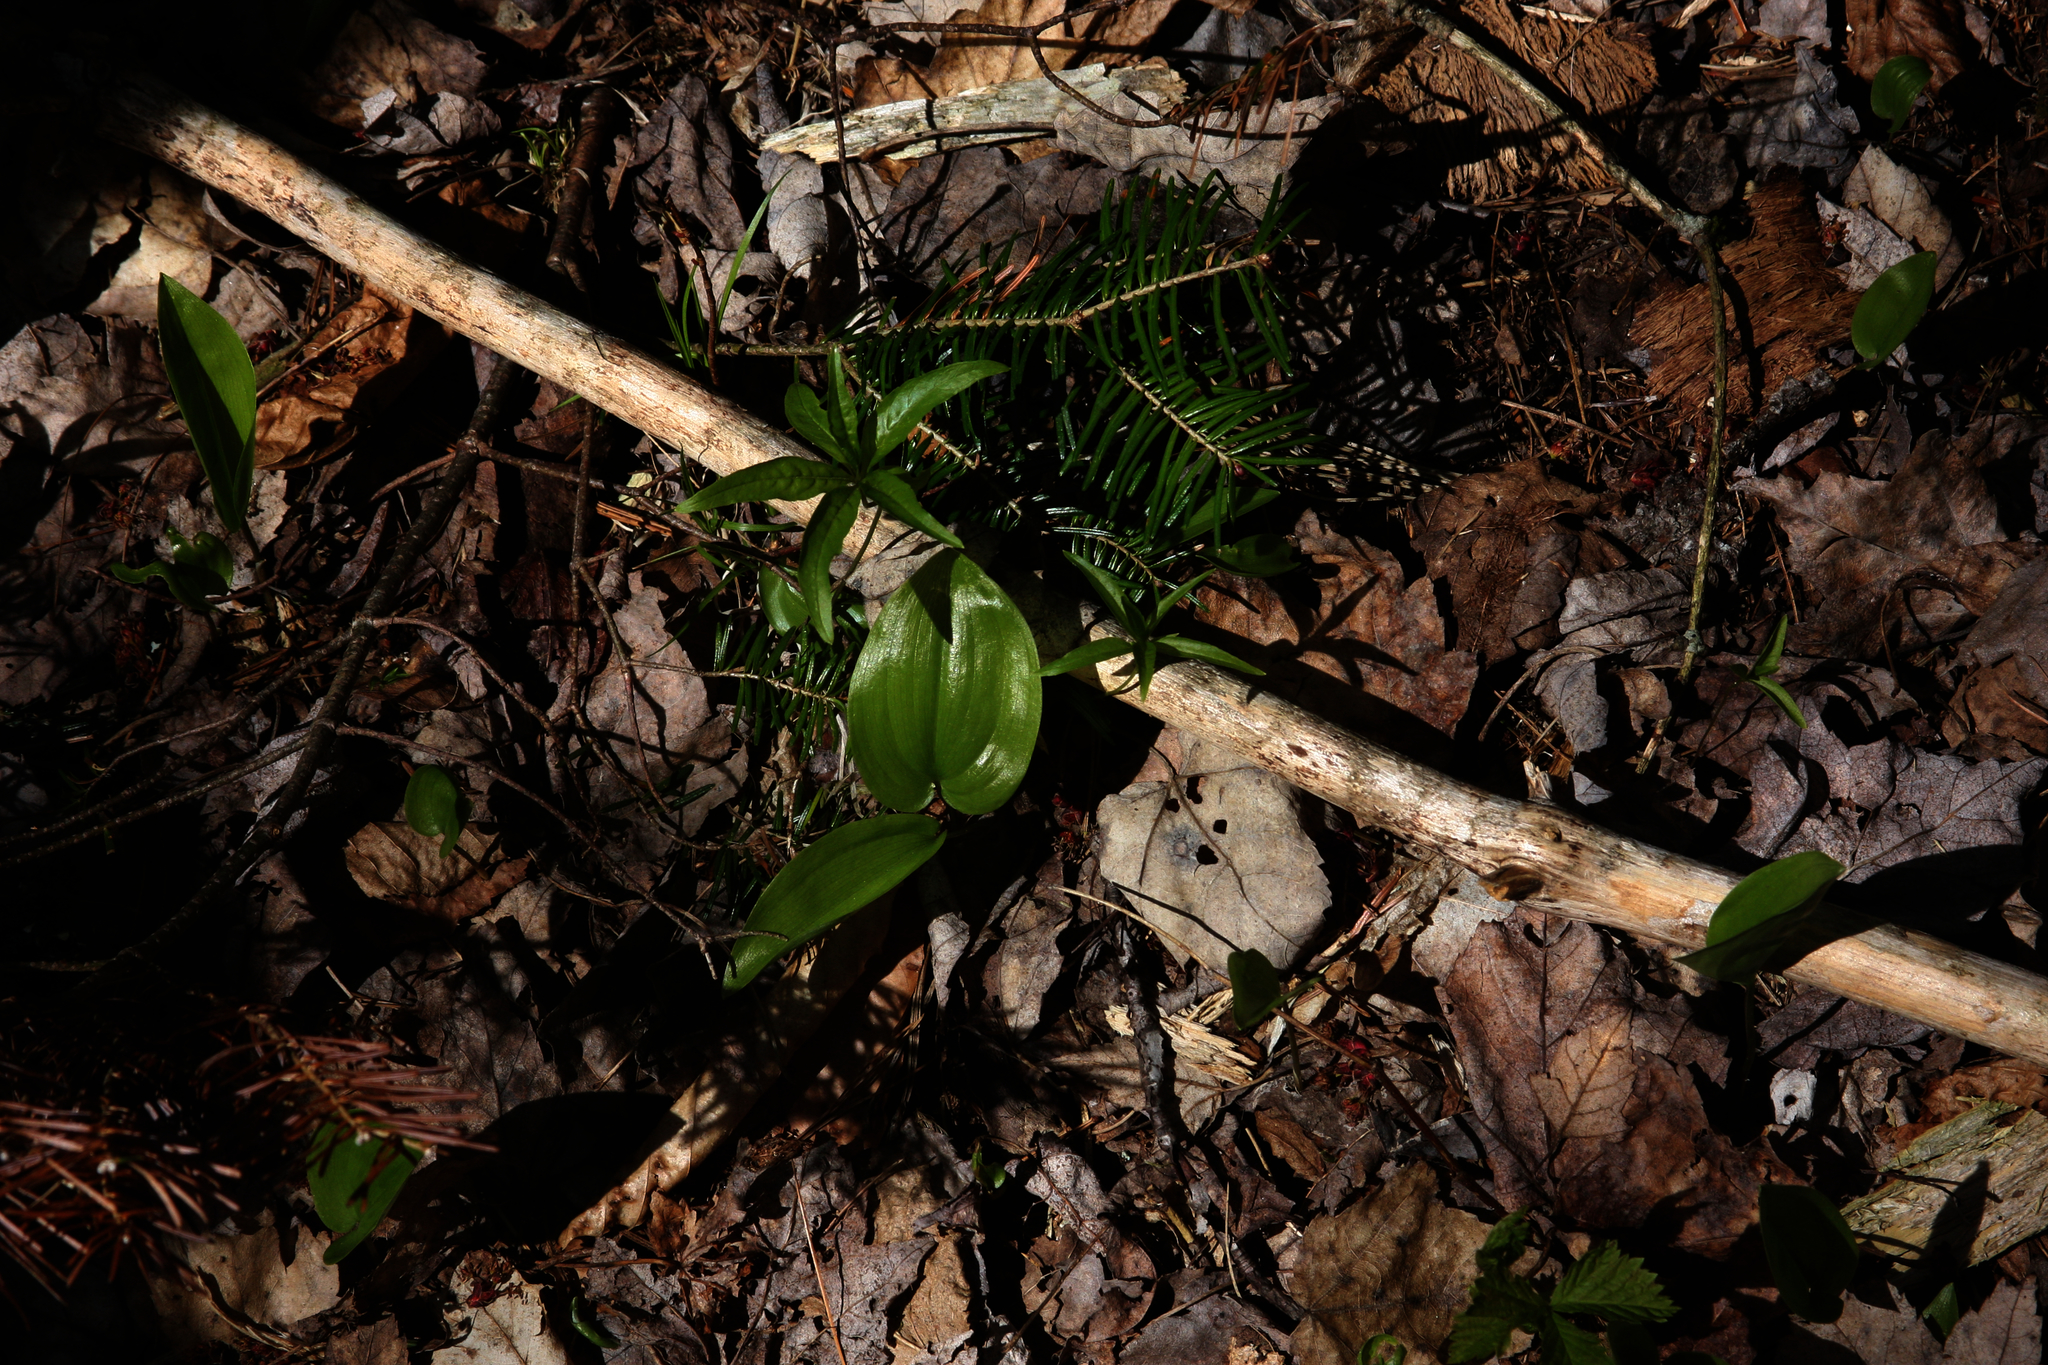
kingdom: Plantae
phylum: Tracheophyta
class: Liliopsida
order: Asparagales
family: Asparagaceae
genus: Maianthemum
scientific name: Maianthemum canadense
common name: False lily-of-the-valley
